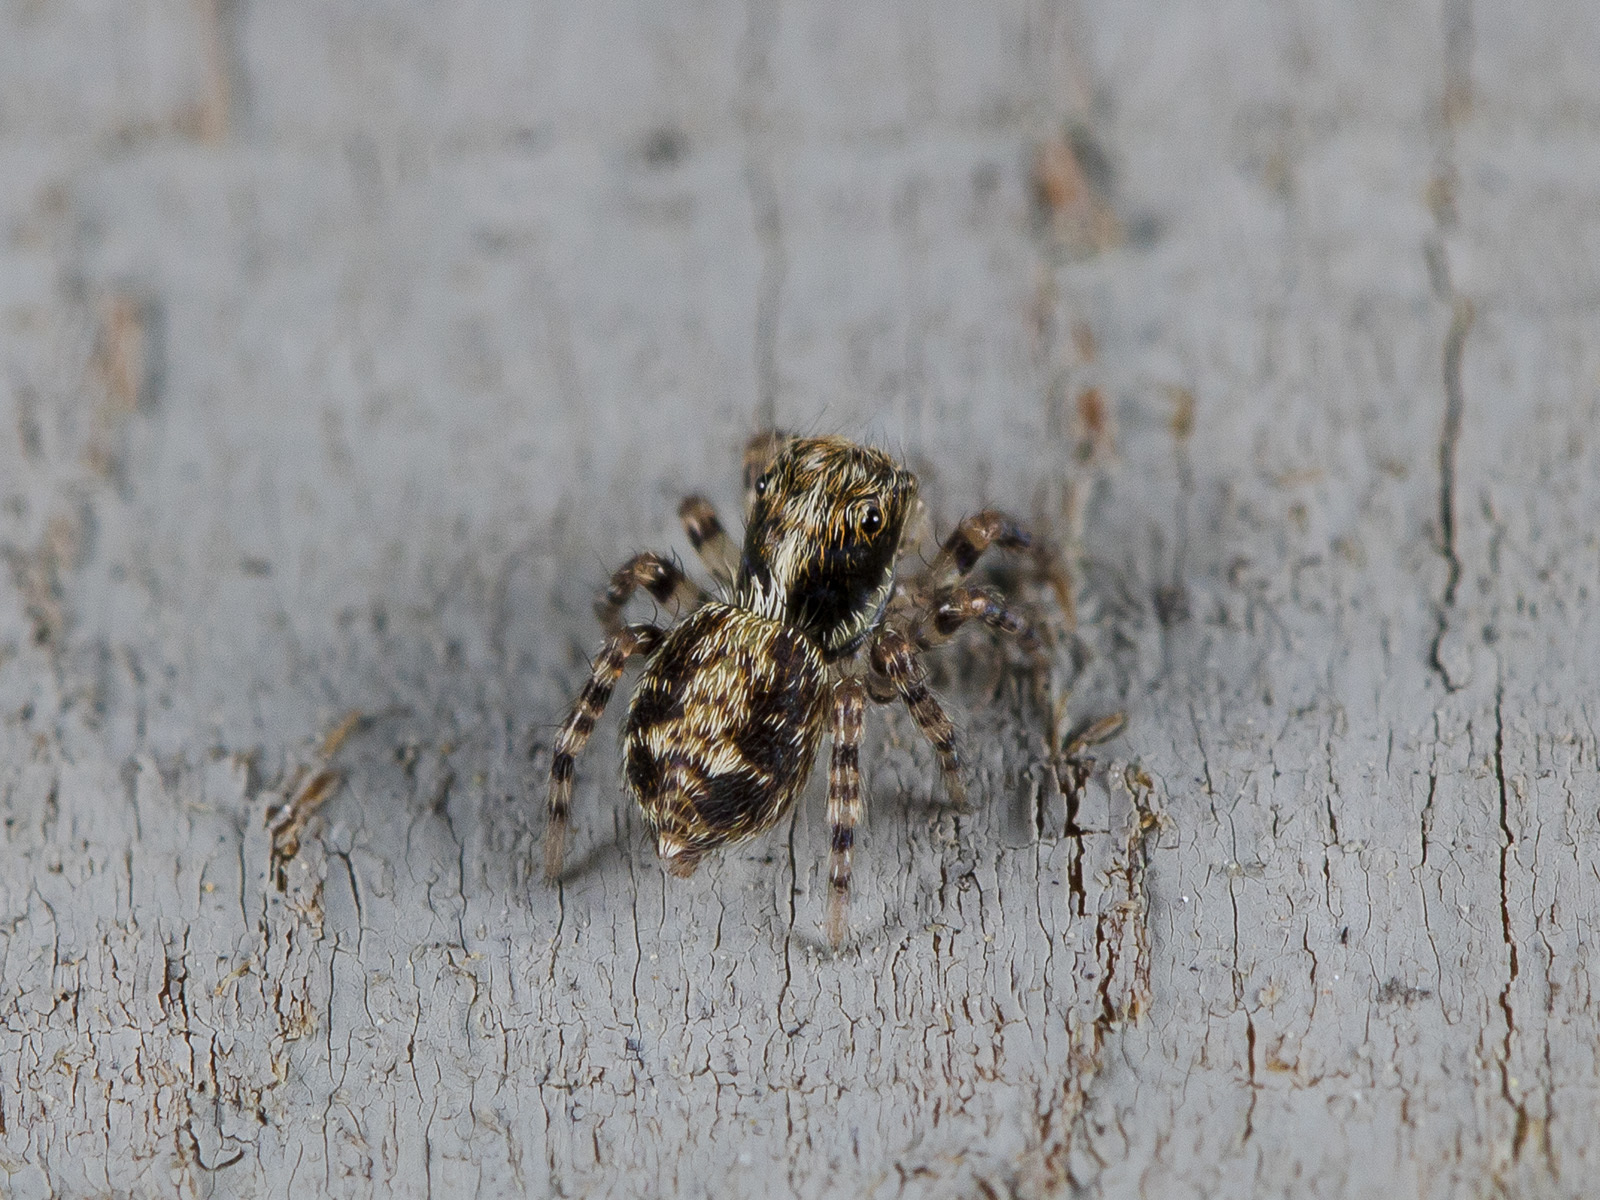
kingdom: Animalia
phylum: Arthropoda
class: Arachnida
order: Araneae
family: Salticidae
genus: Pseudeuophrys
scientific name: Pseudeuophrys obsoleta
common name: Whelk-shell jumper
